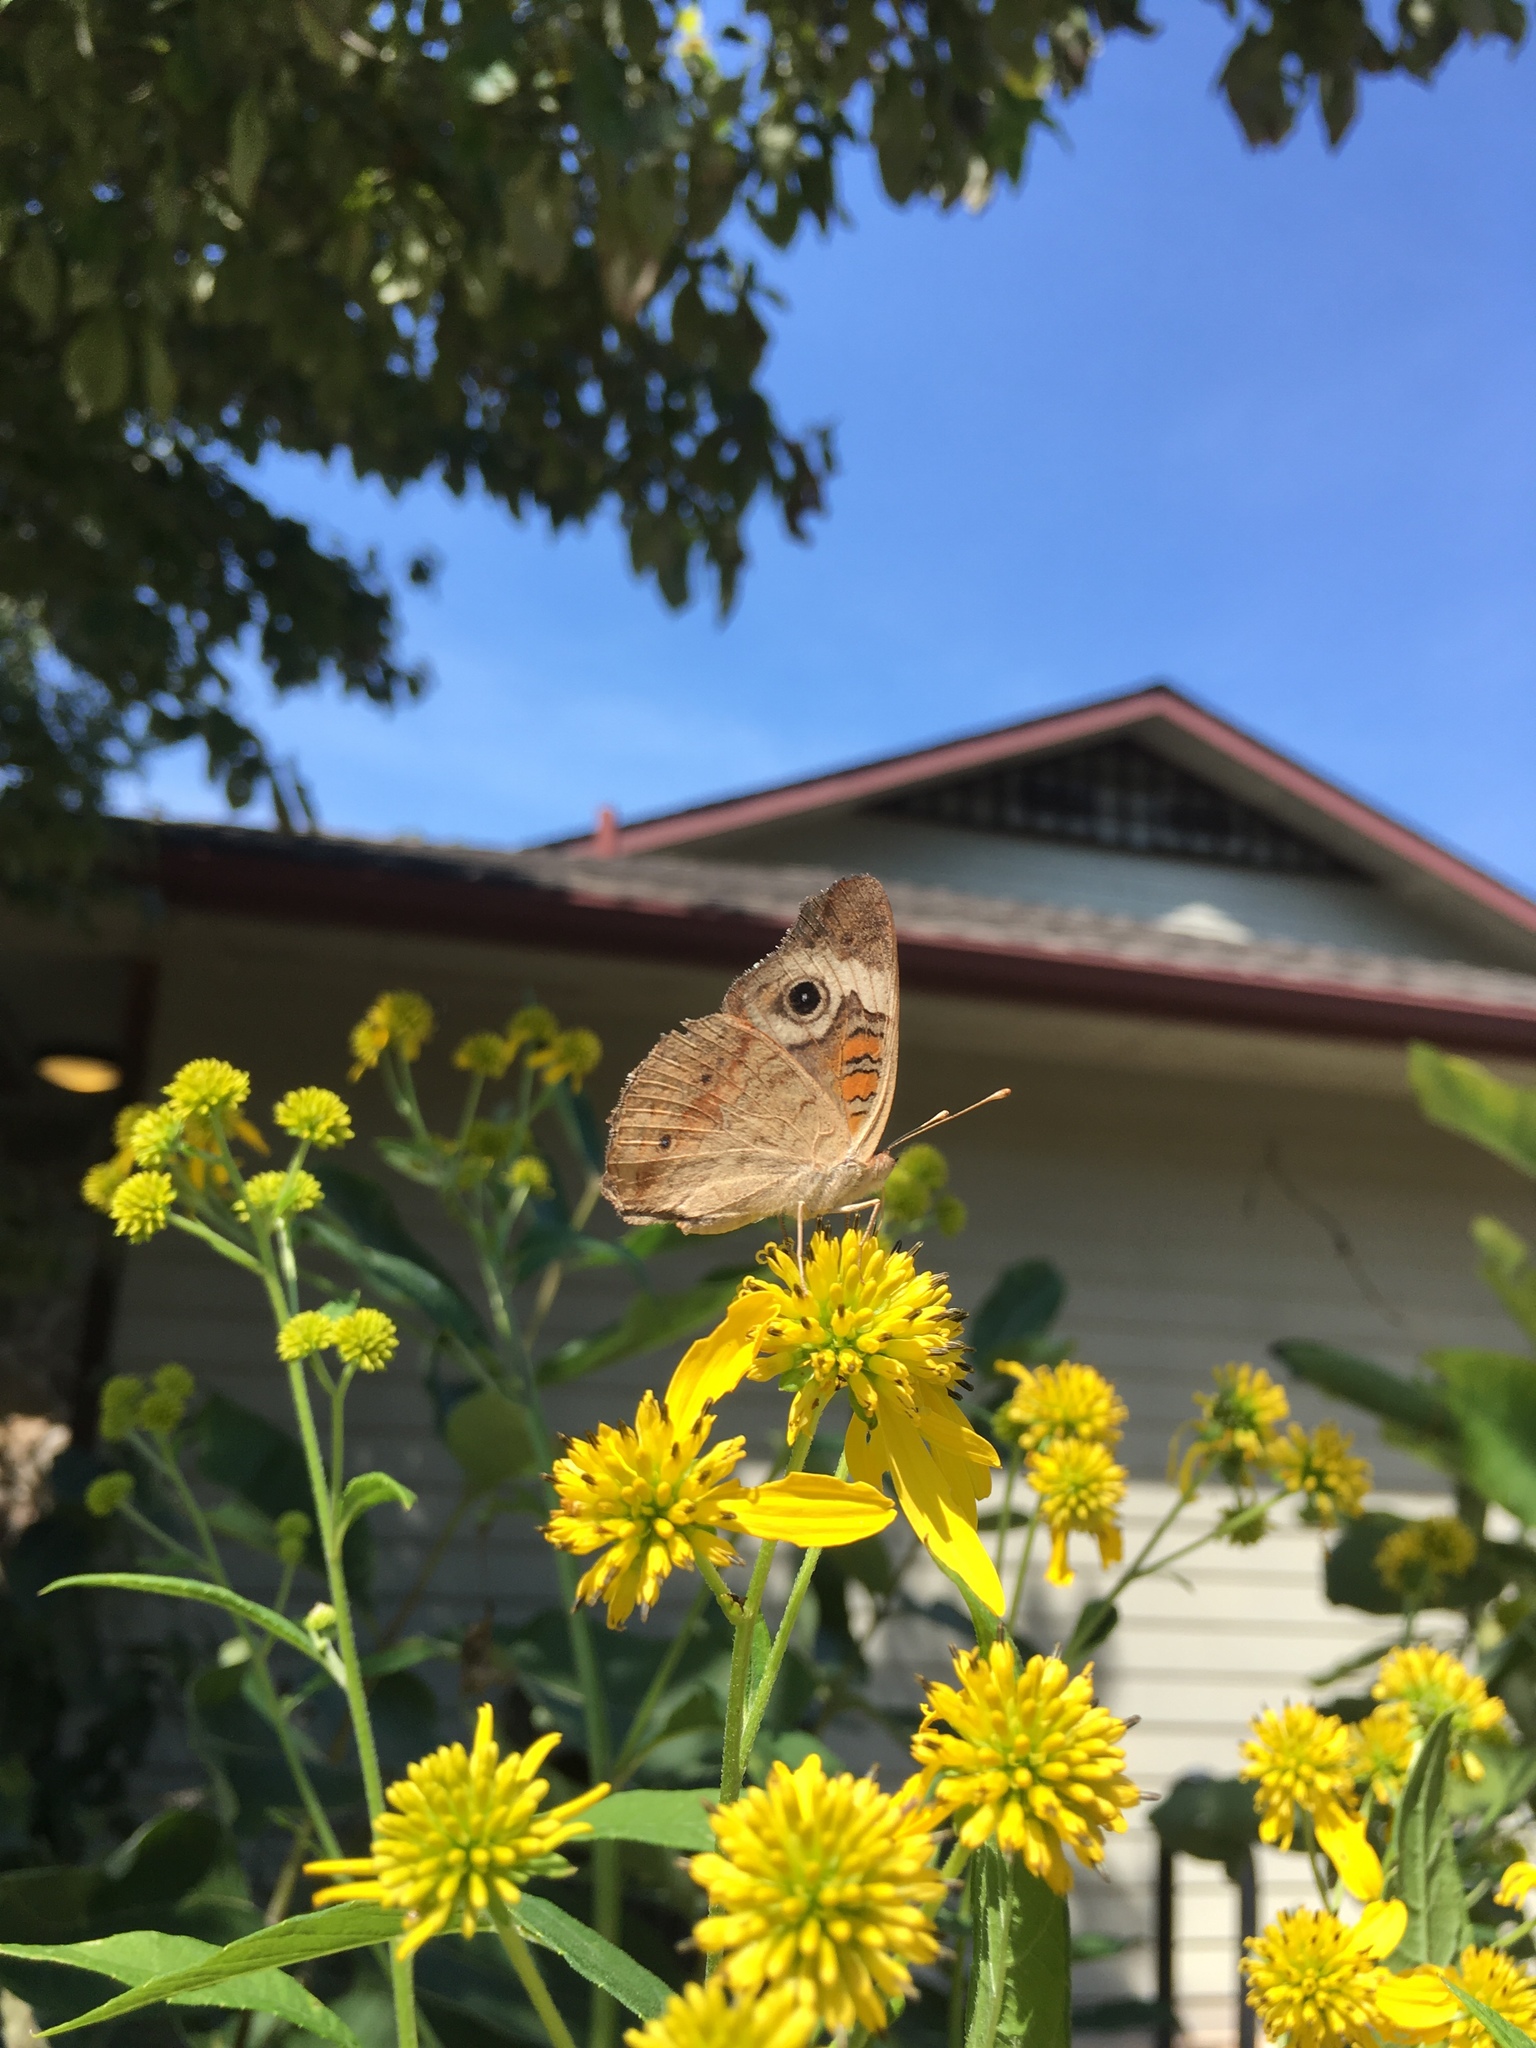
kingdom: Animalia
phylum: Arthropoda
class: Insecta
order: Lepidoptera
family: Nymphalidae
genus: Junonia
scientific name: Junonia coenia
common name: Common buckeye
